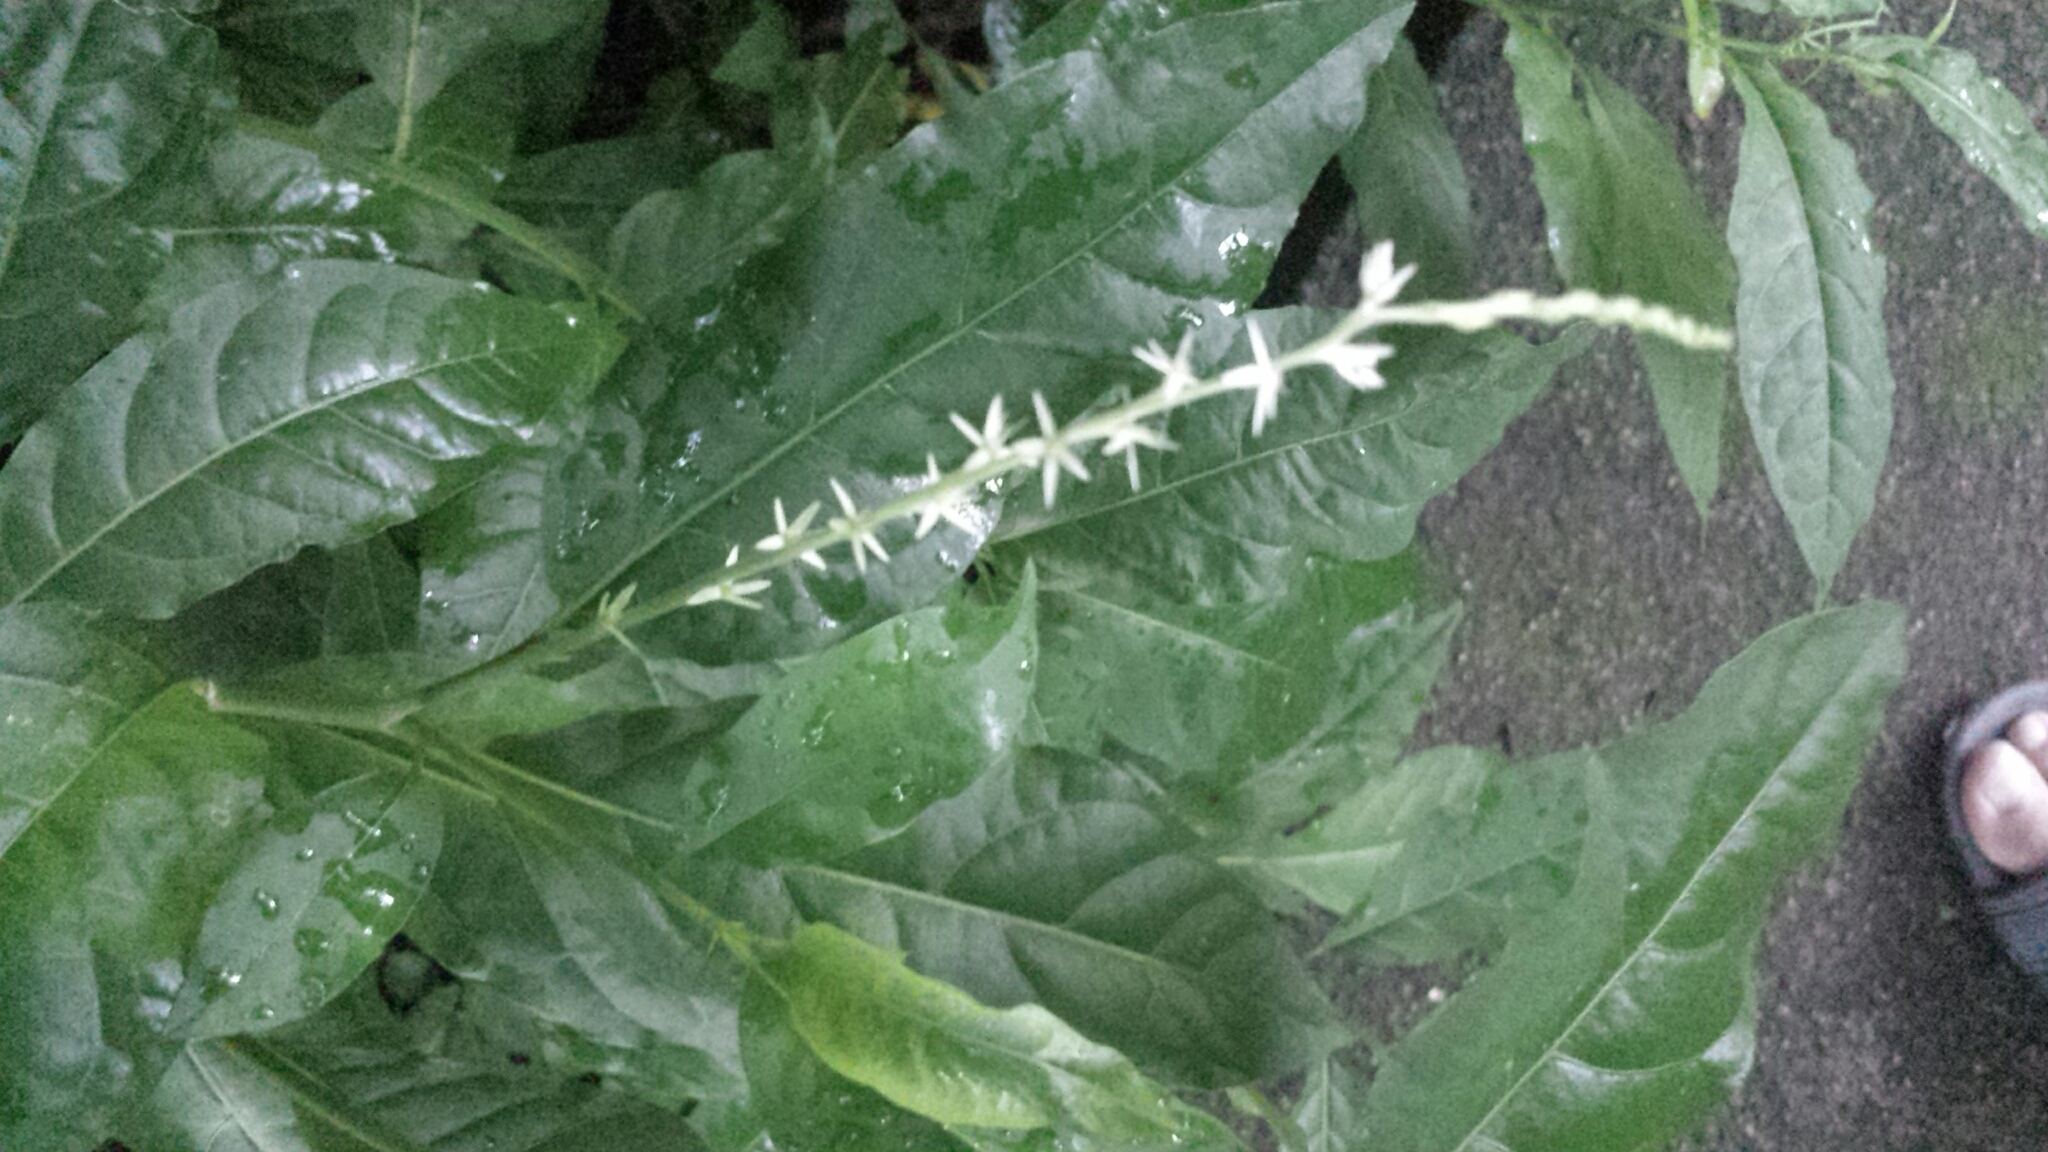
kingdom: Plantae
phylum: Tracheophyta
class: Magnoliopsida
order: Caryophyllales
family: Phytolaccaceae
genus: Petiveria
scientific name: Petiveria alliacea
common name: Garlicweed
